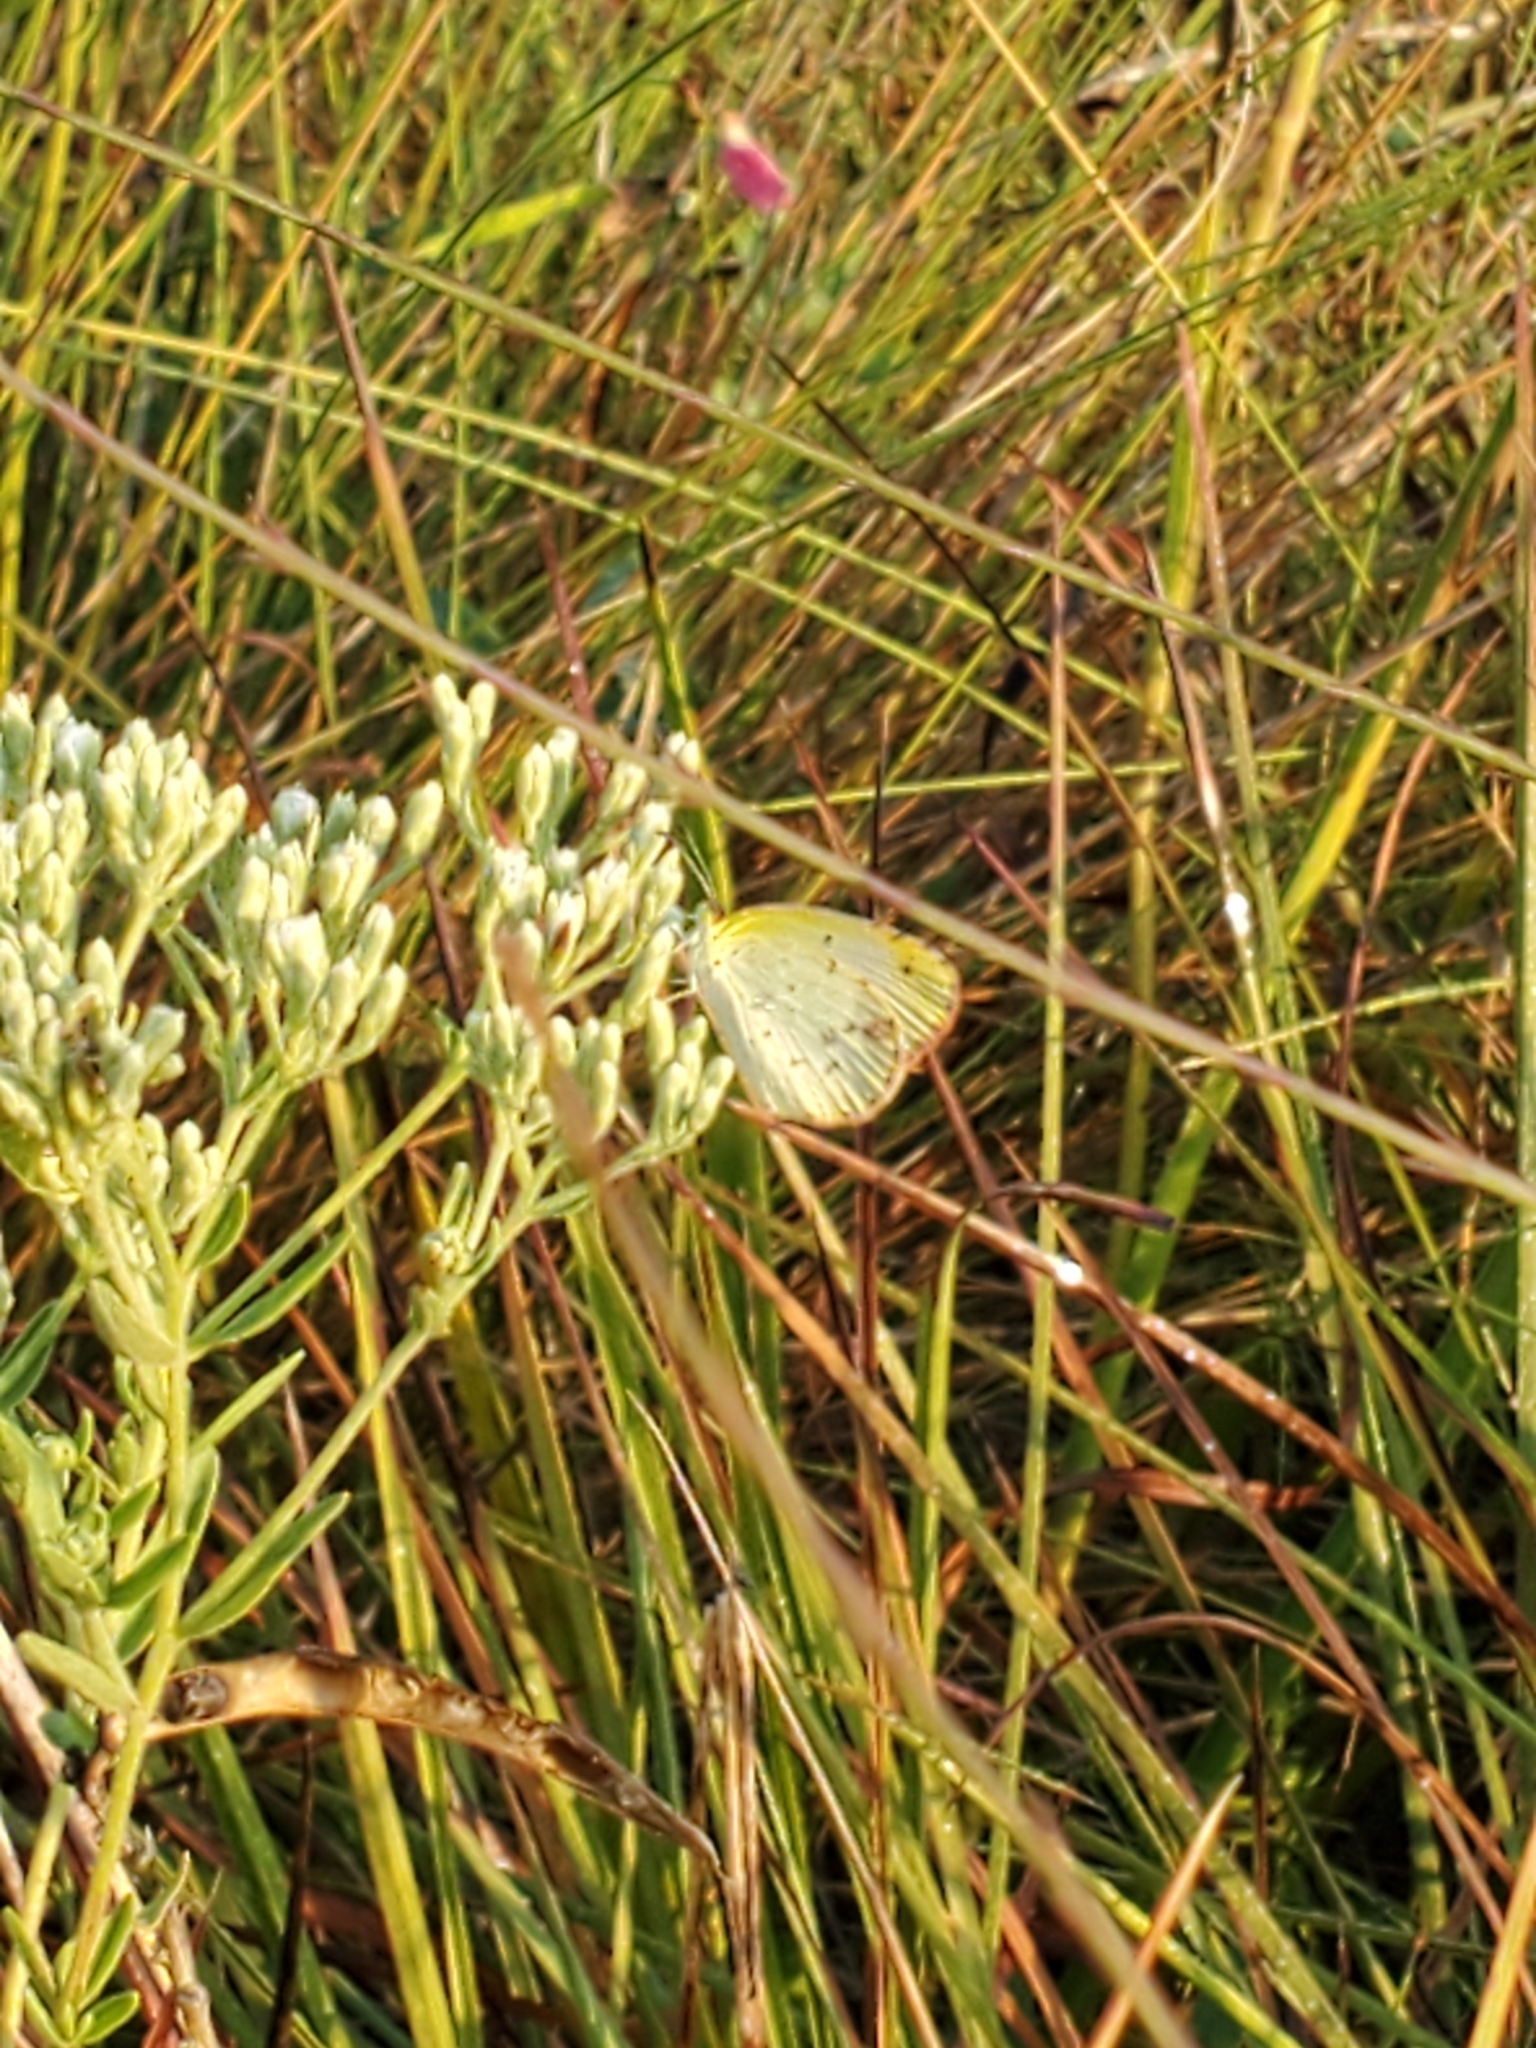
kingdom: Animalia
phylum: Arthropoda
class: Insecta
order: Lepidoptera
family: Pieridae
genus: Pyrisitia
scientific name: Pyrisitia lisa
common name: Little yellow
